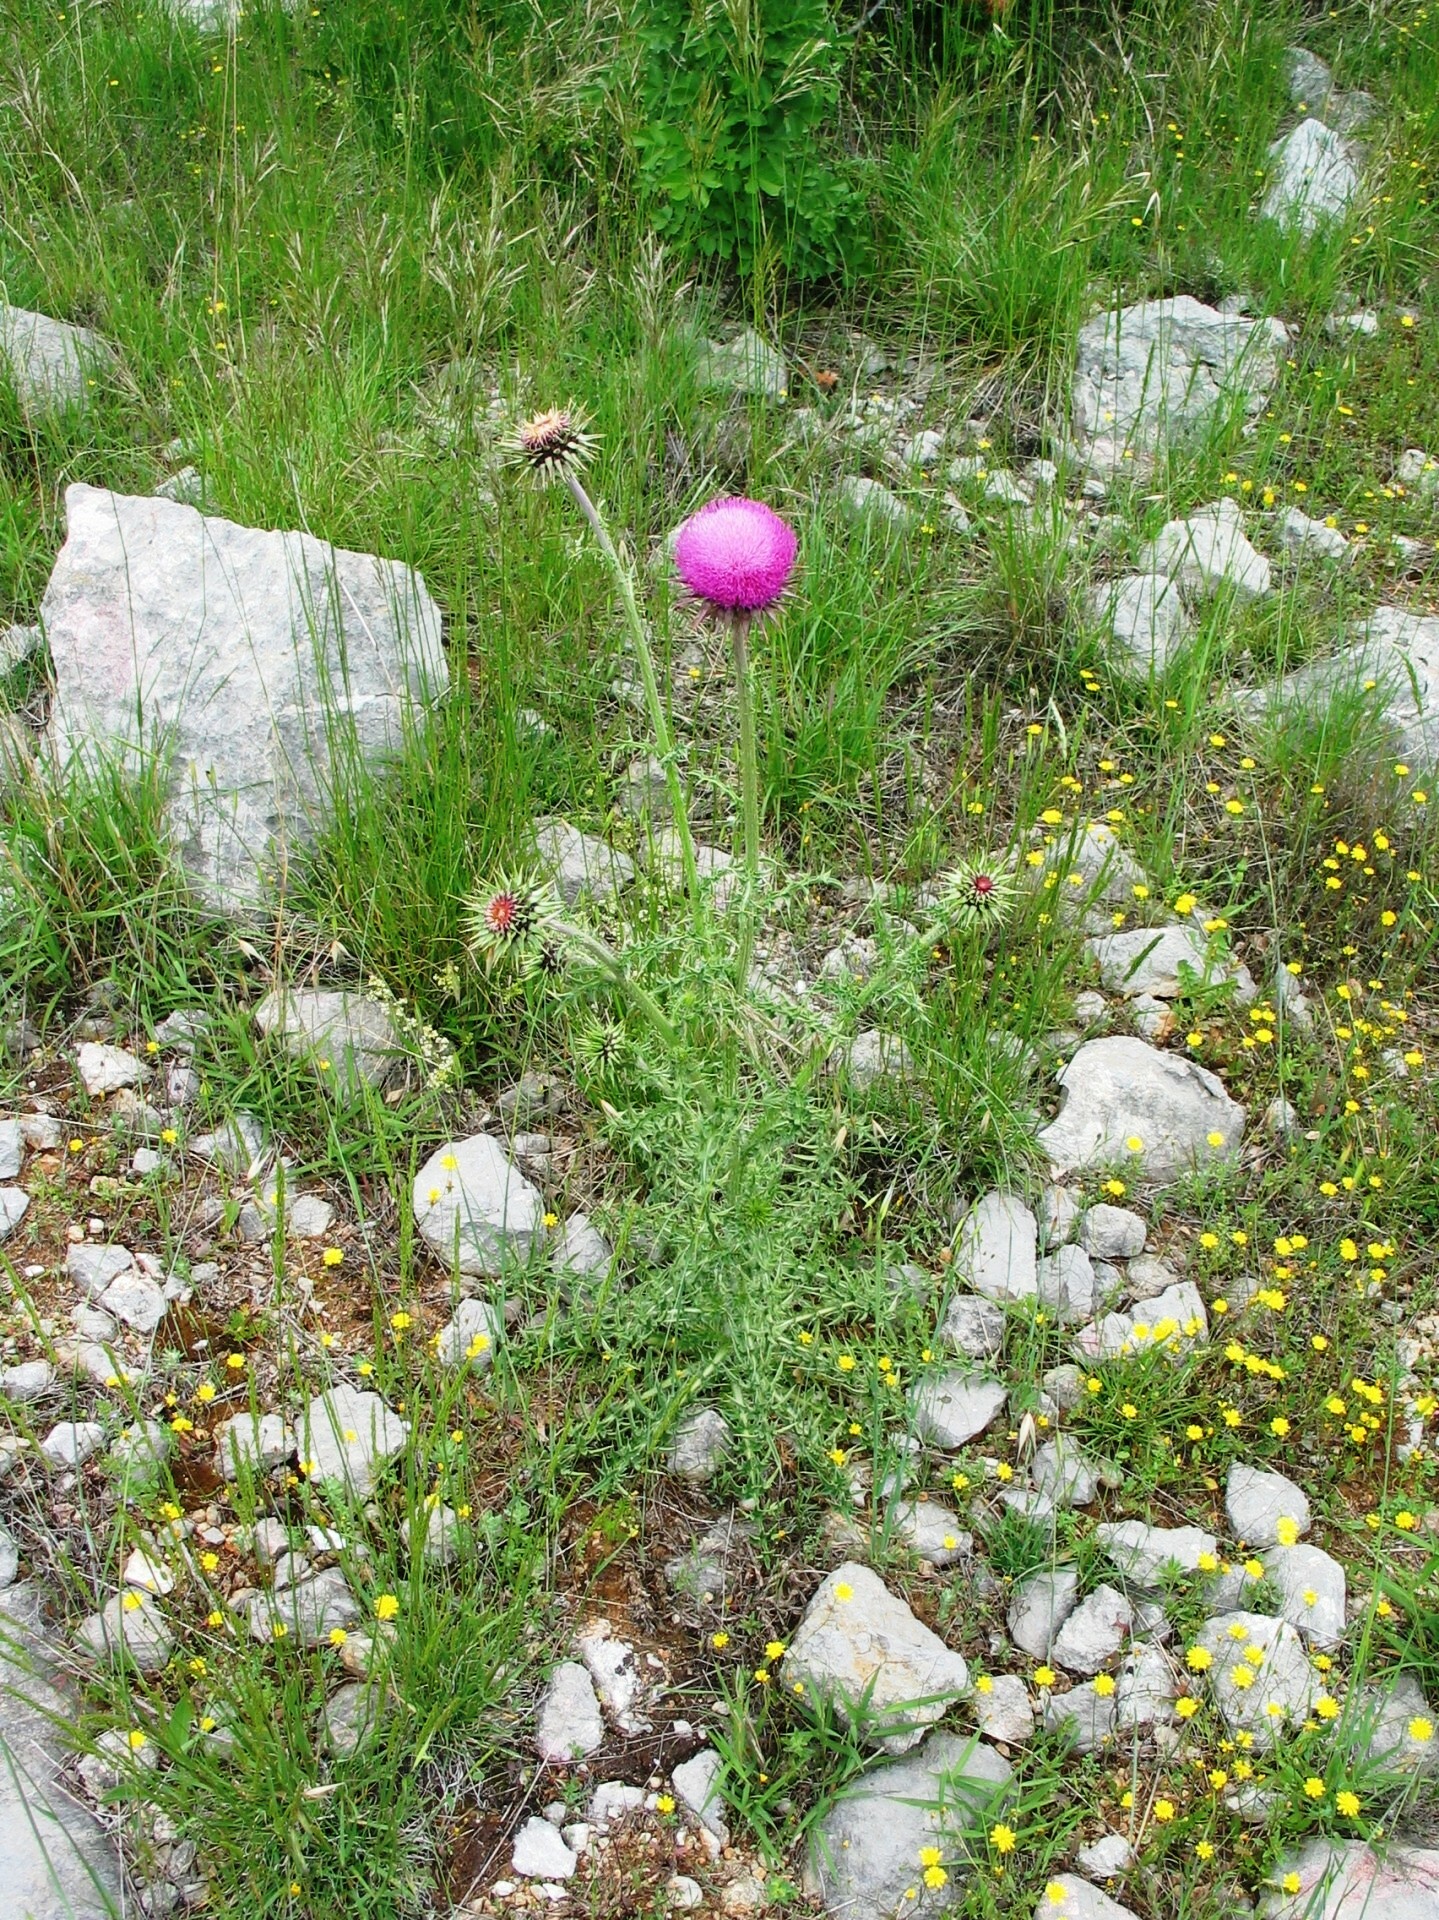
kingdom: Plantae
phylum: Tracheophyta
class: Magnoliopsida
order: Asterales
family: Asteraceae
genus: Carduus
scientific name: Carduus nutans
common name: Musk thistle
